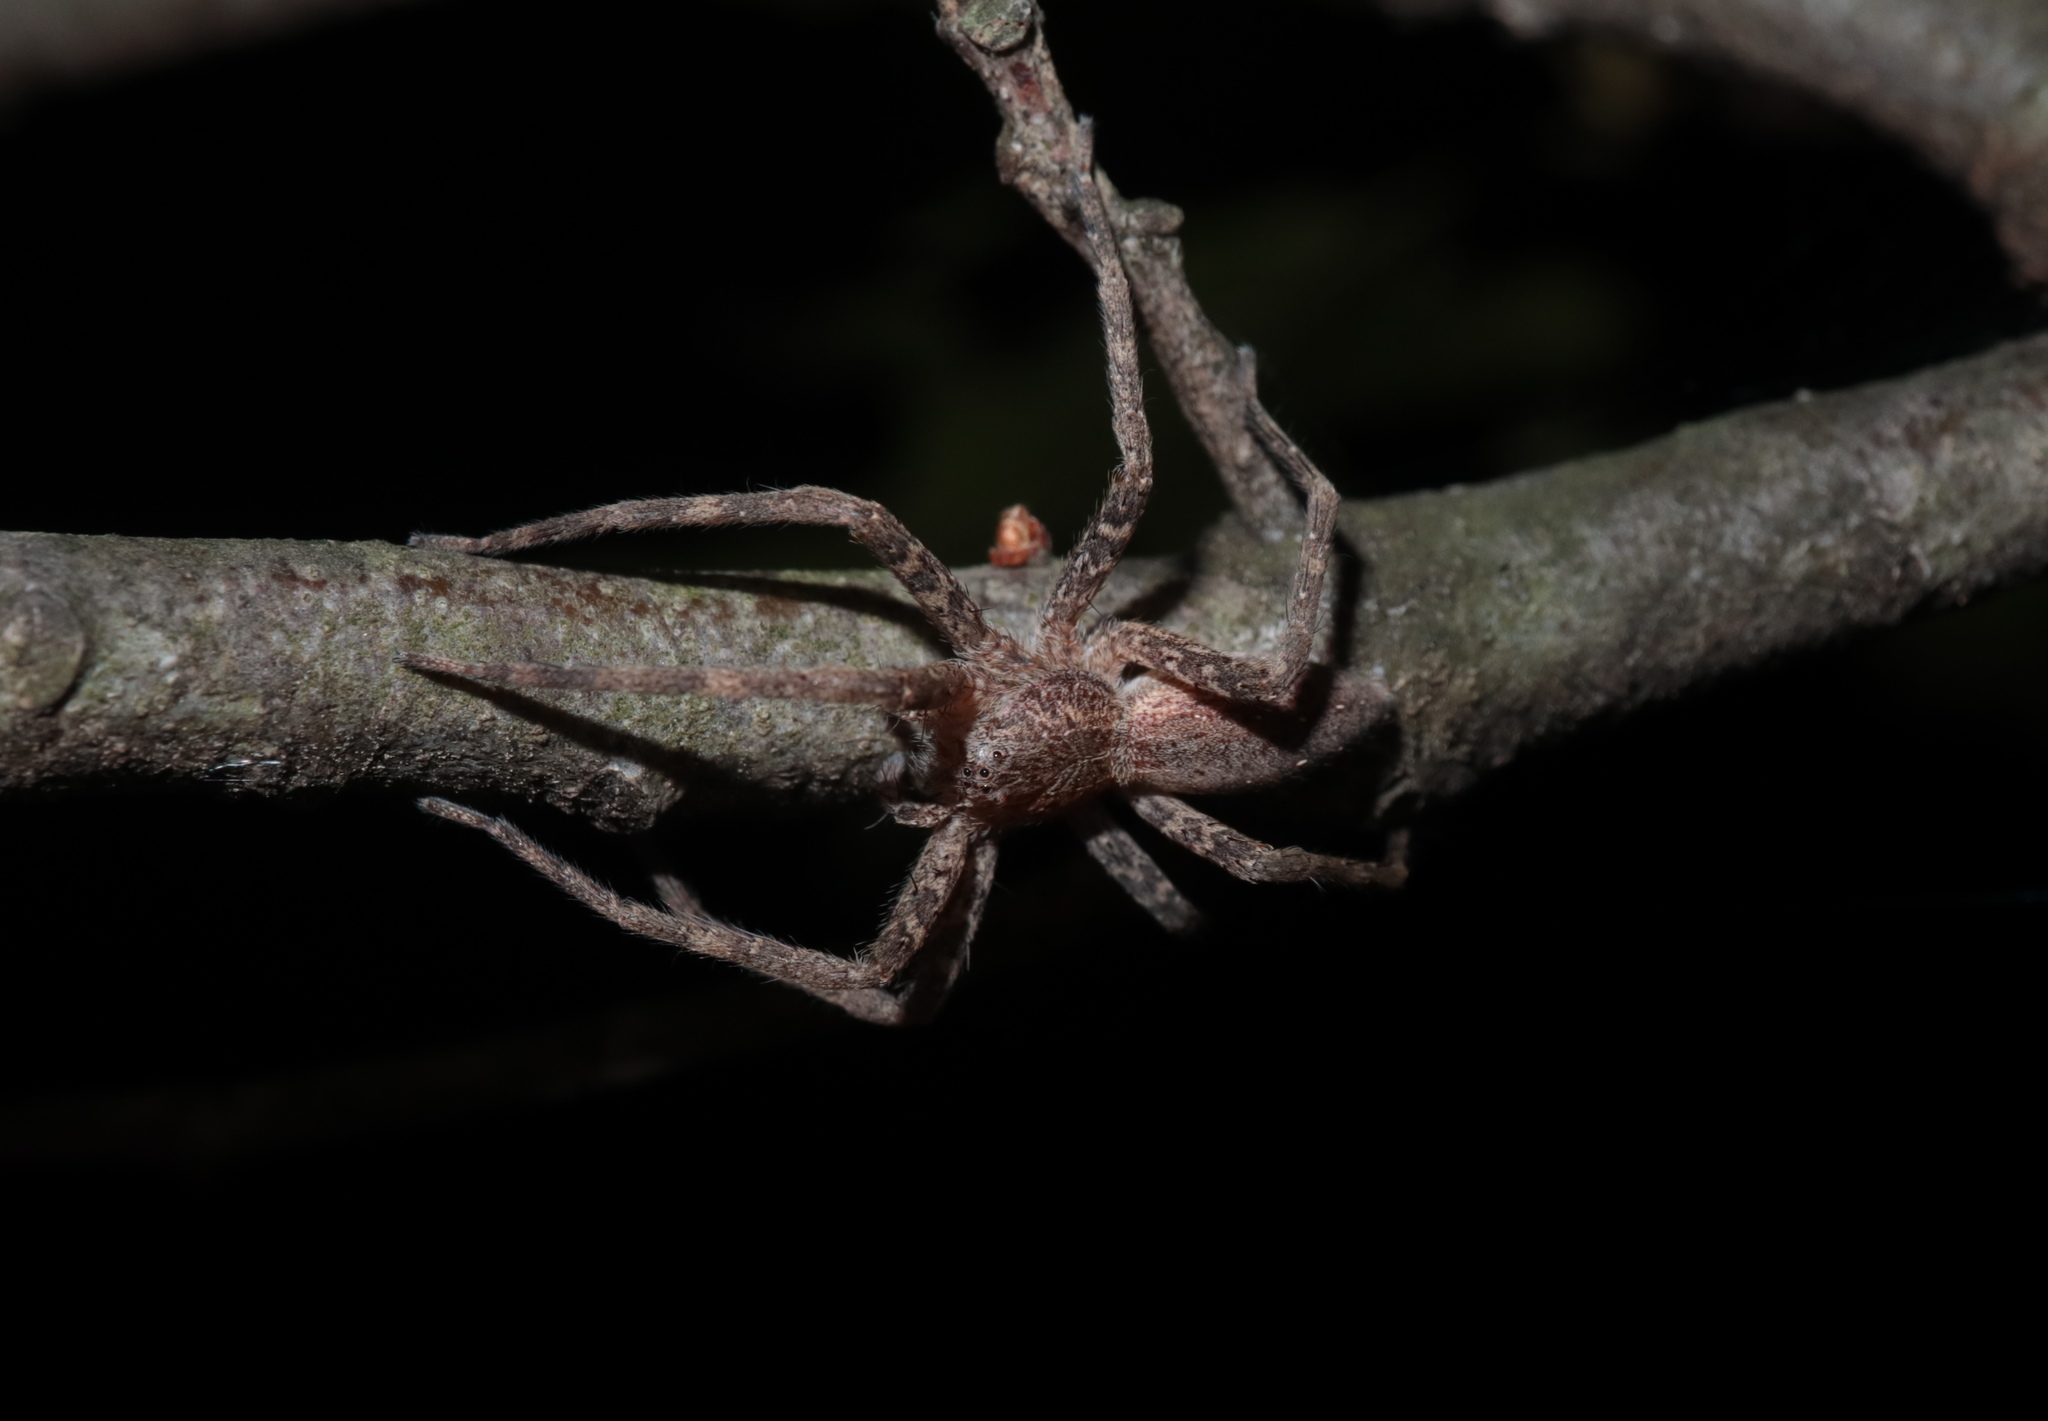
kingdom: Animalia
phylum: Arthropoda
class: Arachnida
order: Araneae
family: Pisauridae
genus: Pisaurina
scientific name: Pisaurina mira
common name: American nursery web spider
